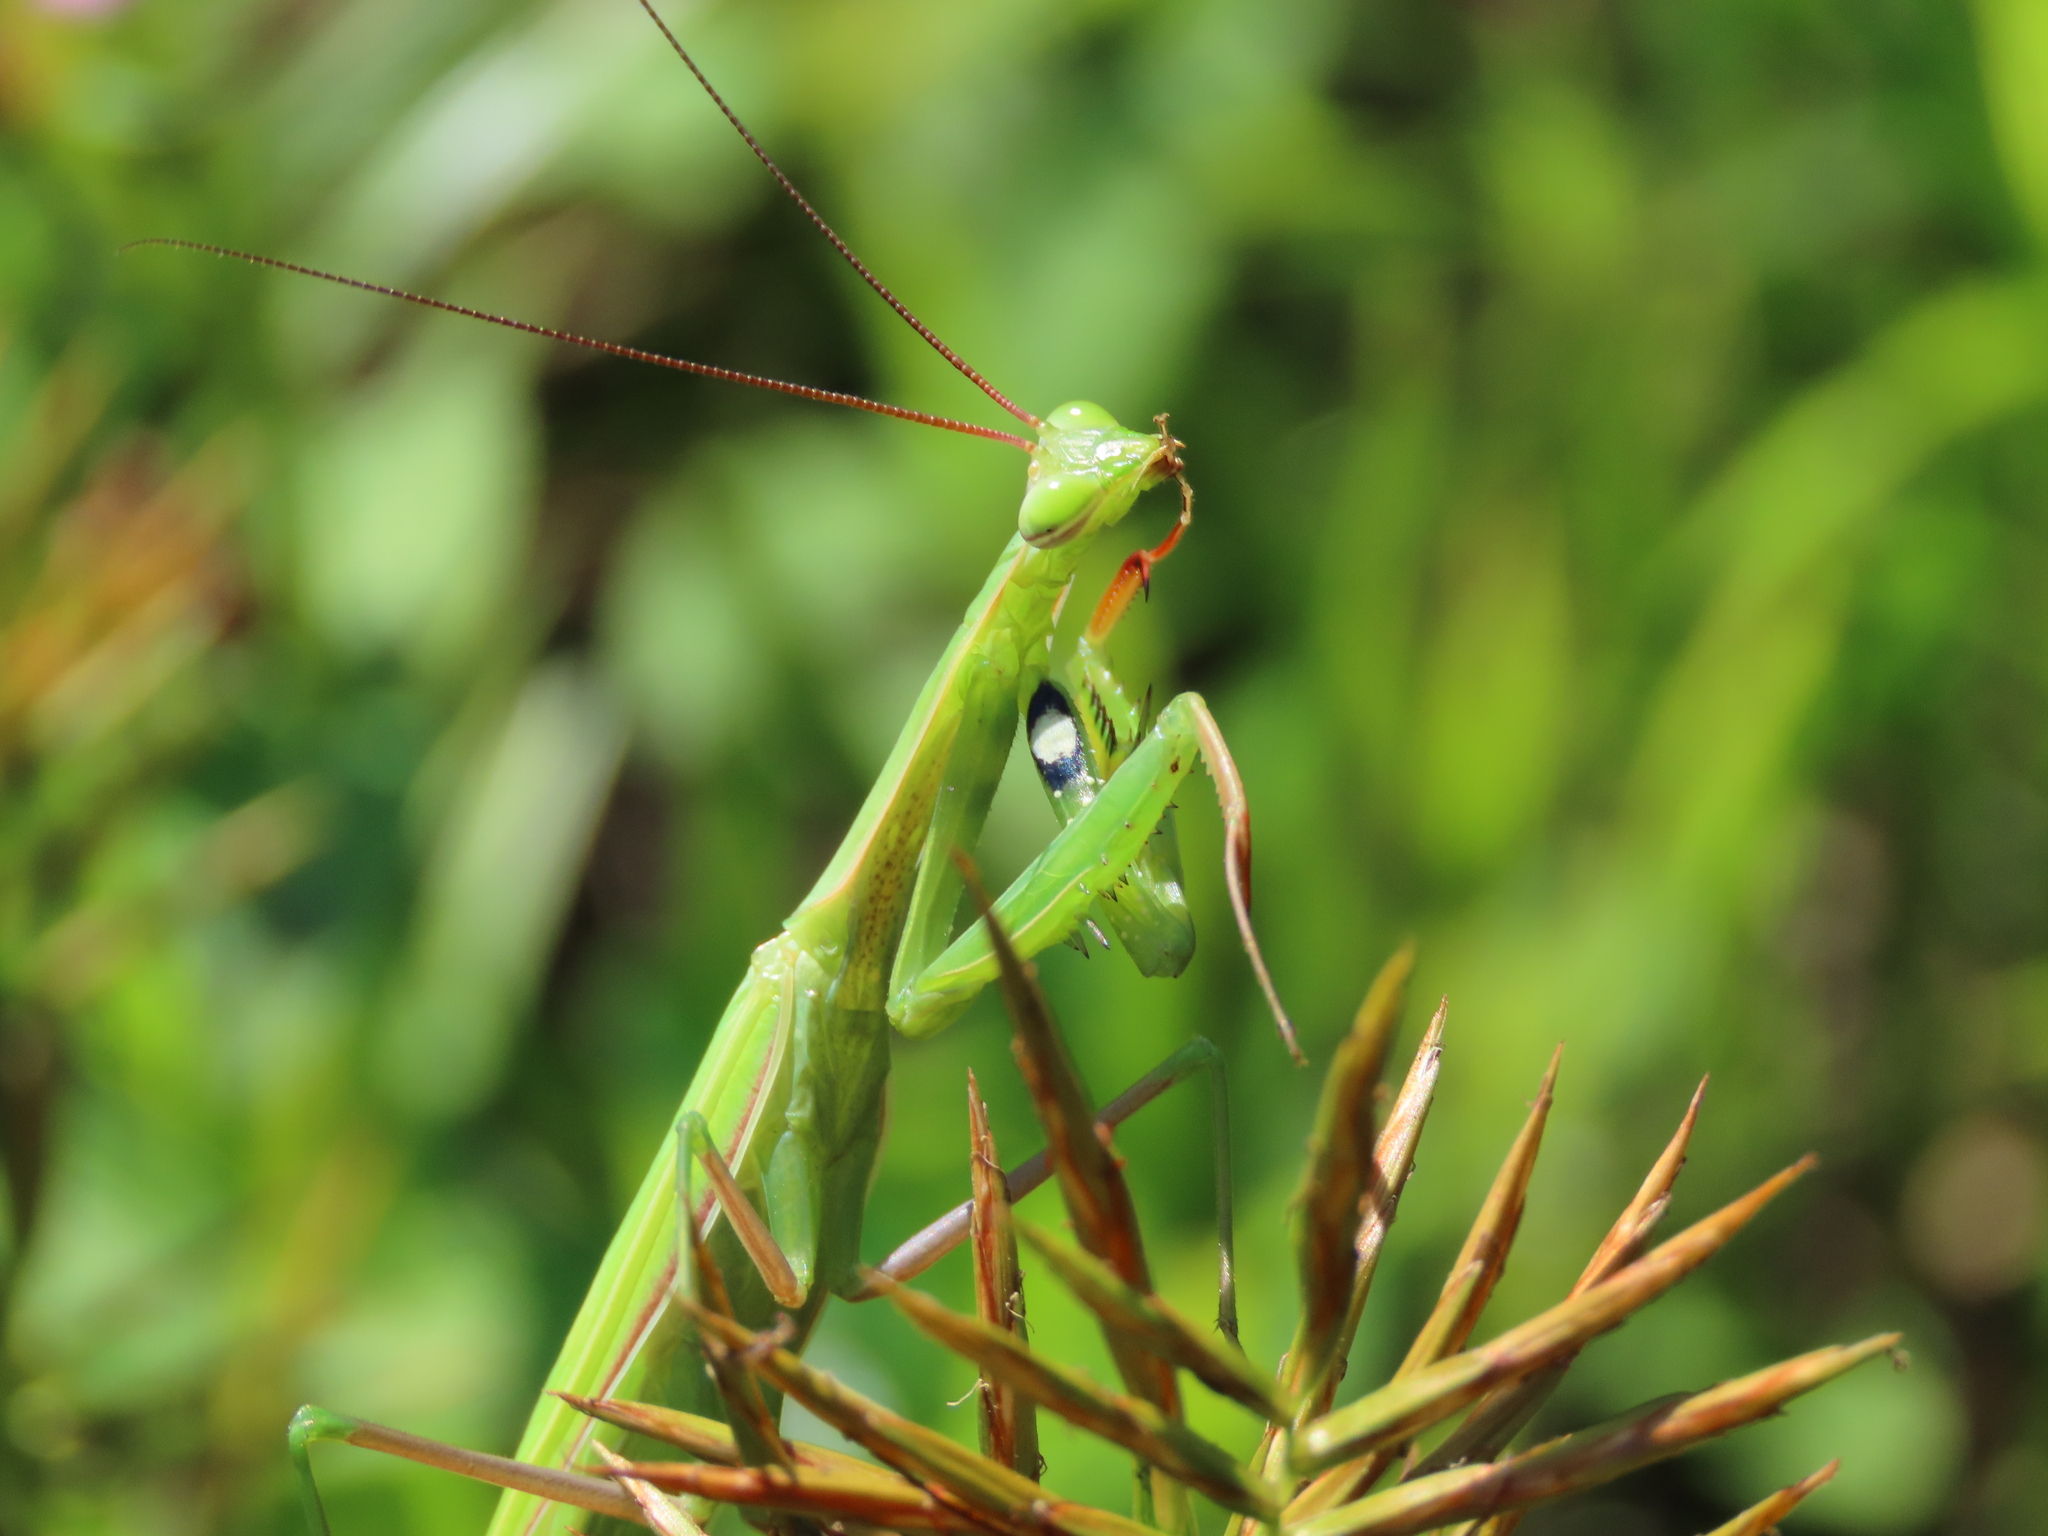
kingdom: Animalia
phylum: Arthropoda
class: Insecta
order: Mantodea
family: Mantidae
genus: Mantis
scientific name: Mantis religiosa
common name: Praying mantis
